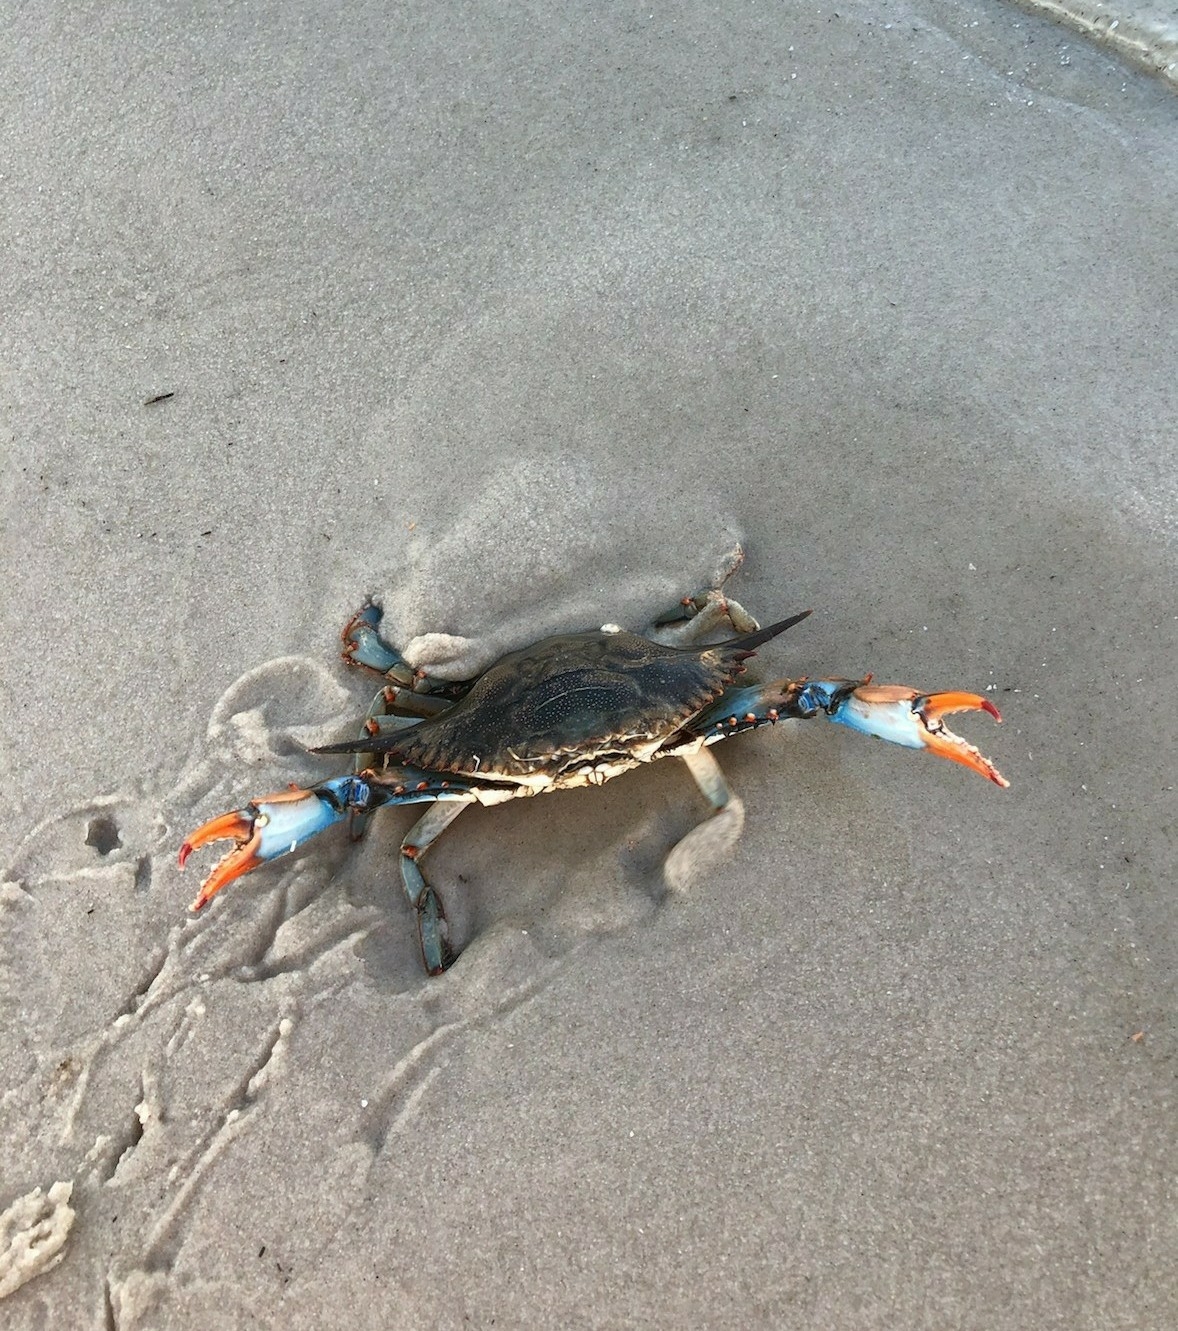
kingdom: Animalia
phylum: Arthropoda
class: Malacostraca
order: Decapoda
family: Portunidae
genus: Callinectes
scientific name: Callinectes sapidus
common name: Blue crab
